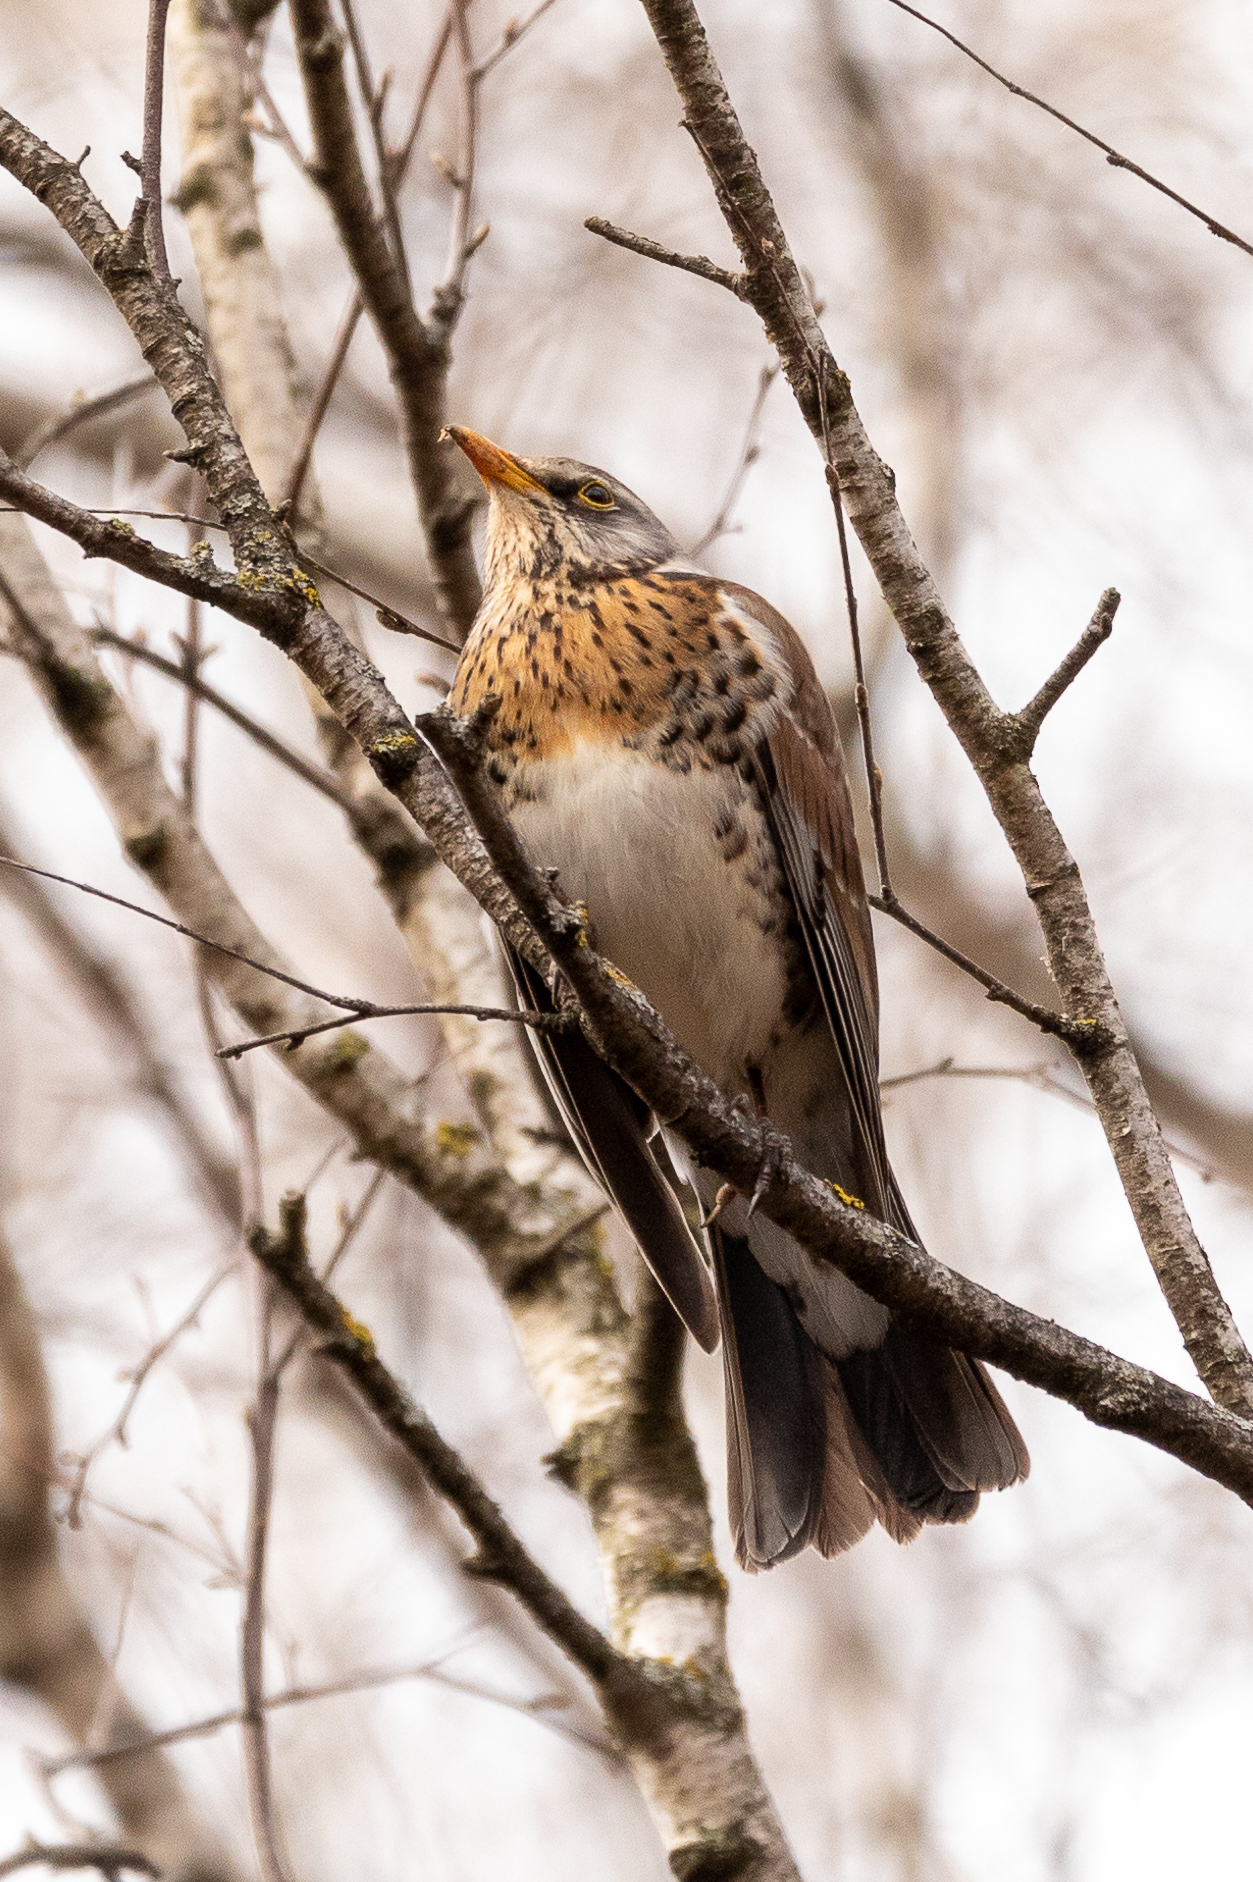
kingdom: Animalia
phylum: Chordata
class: Aves
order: Passeriformes
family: Turdidae
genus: Turdus
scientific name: Turdus pilaris
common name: Fieldfare
